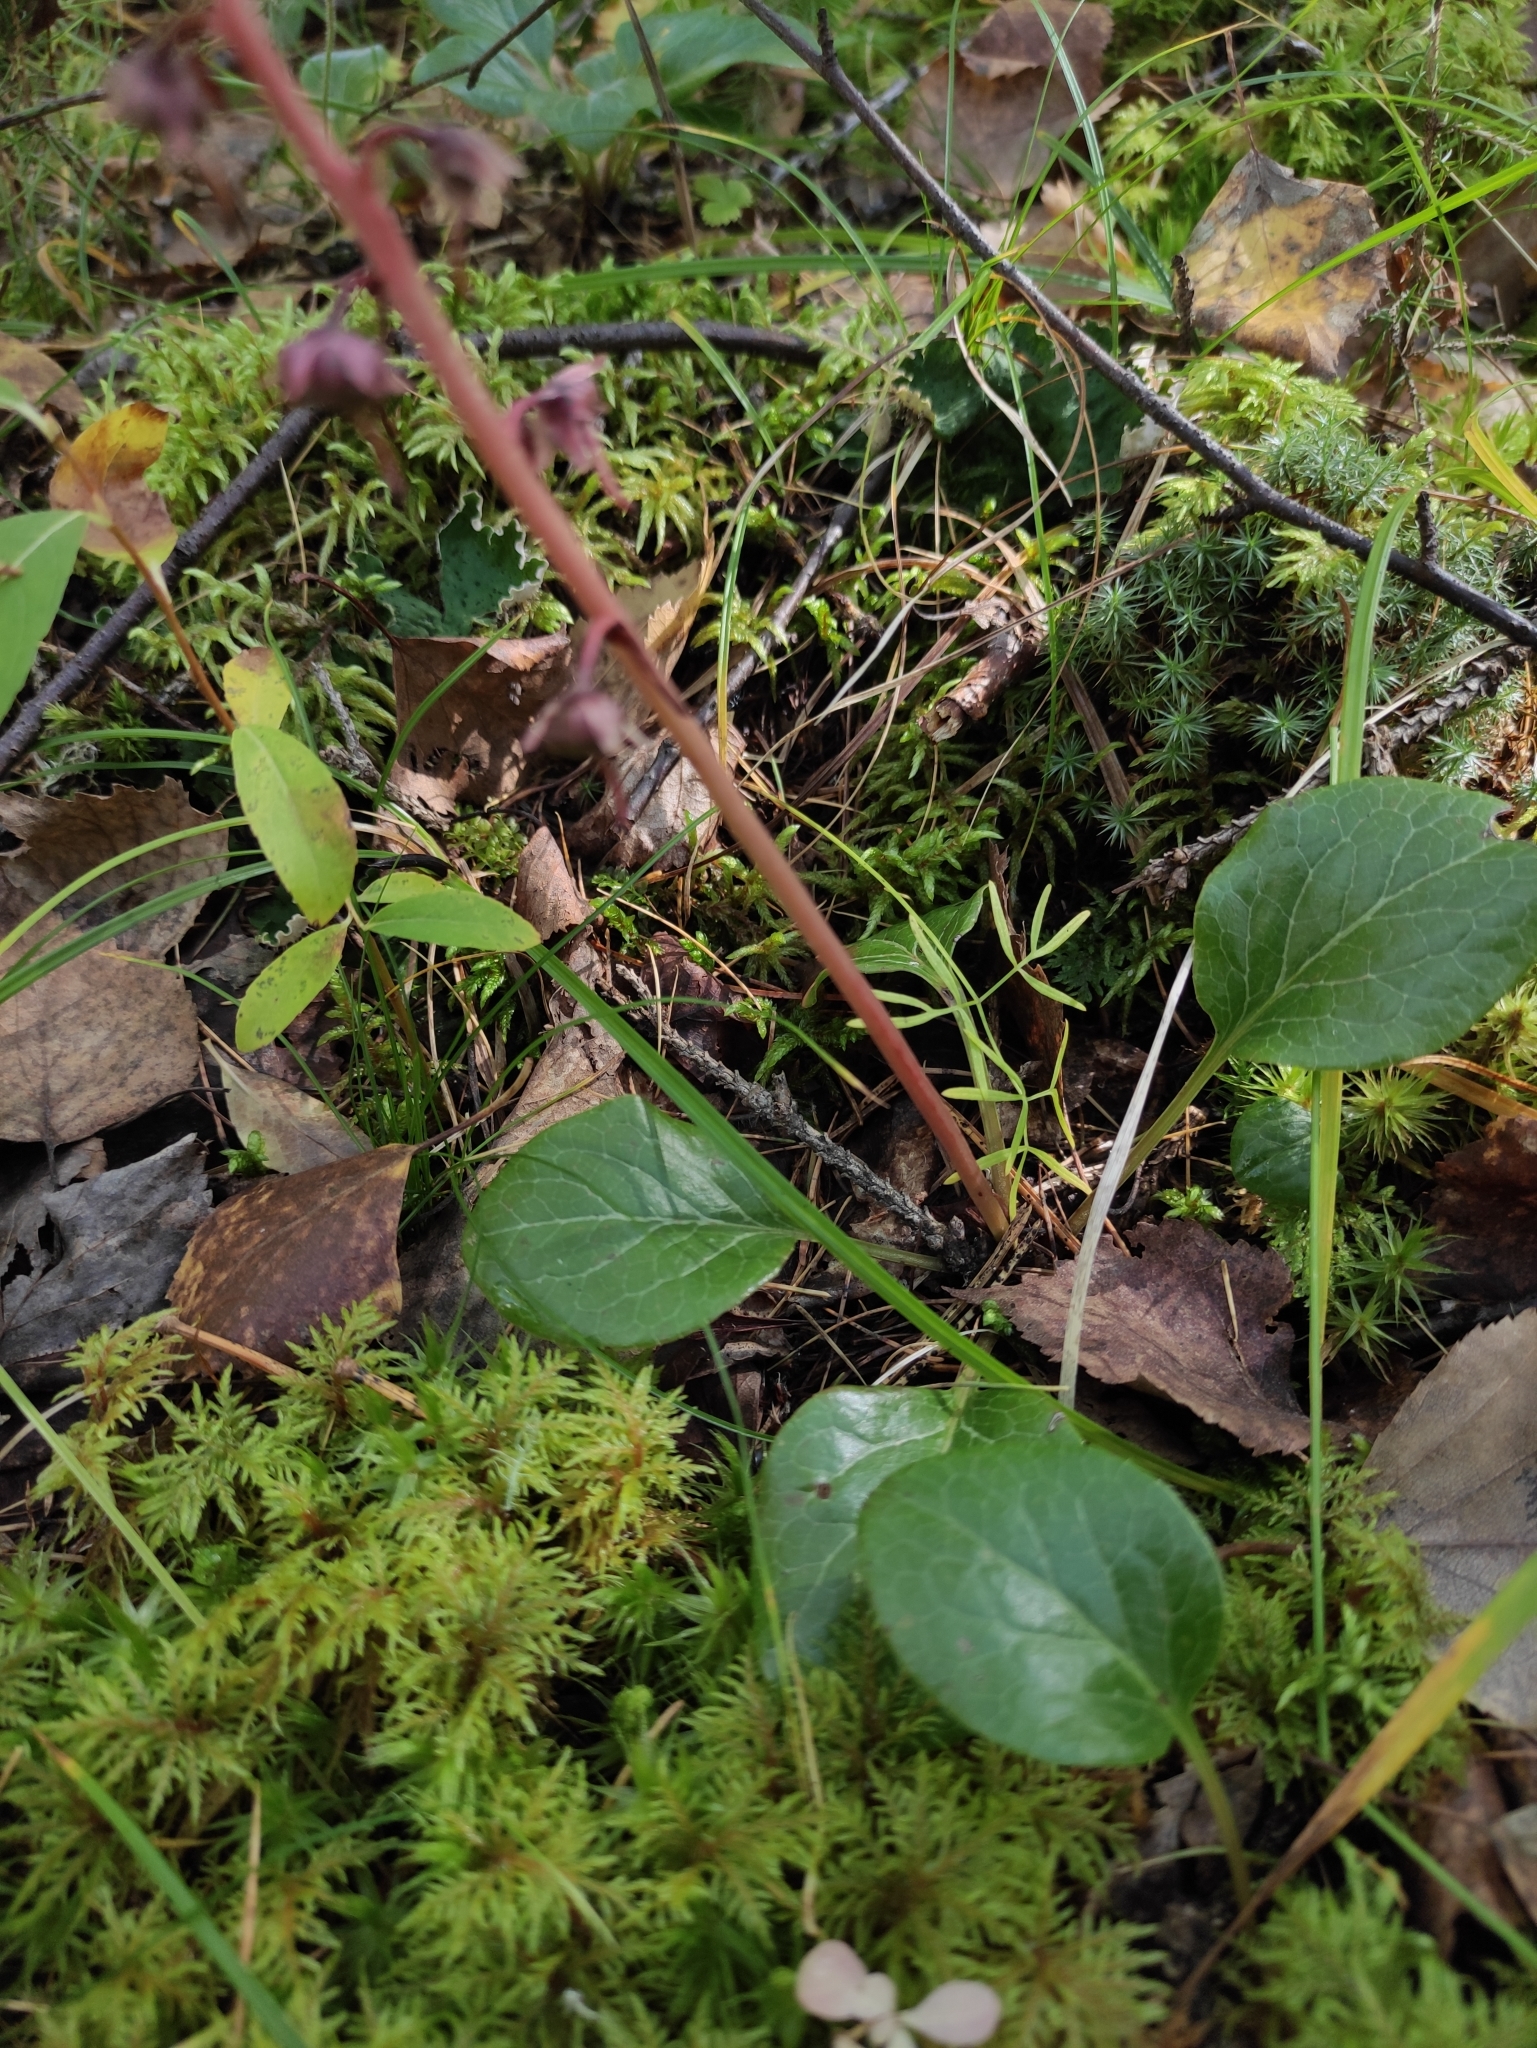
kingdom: Plantae
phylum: Tracheophyta
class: Magnoliopsida
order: Ericales
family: Ericaceae
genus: Pyrola
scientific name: Pyrola asarifolia
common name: Bog wintergreen
